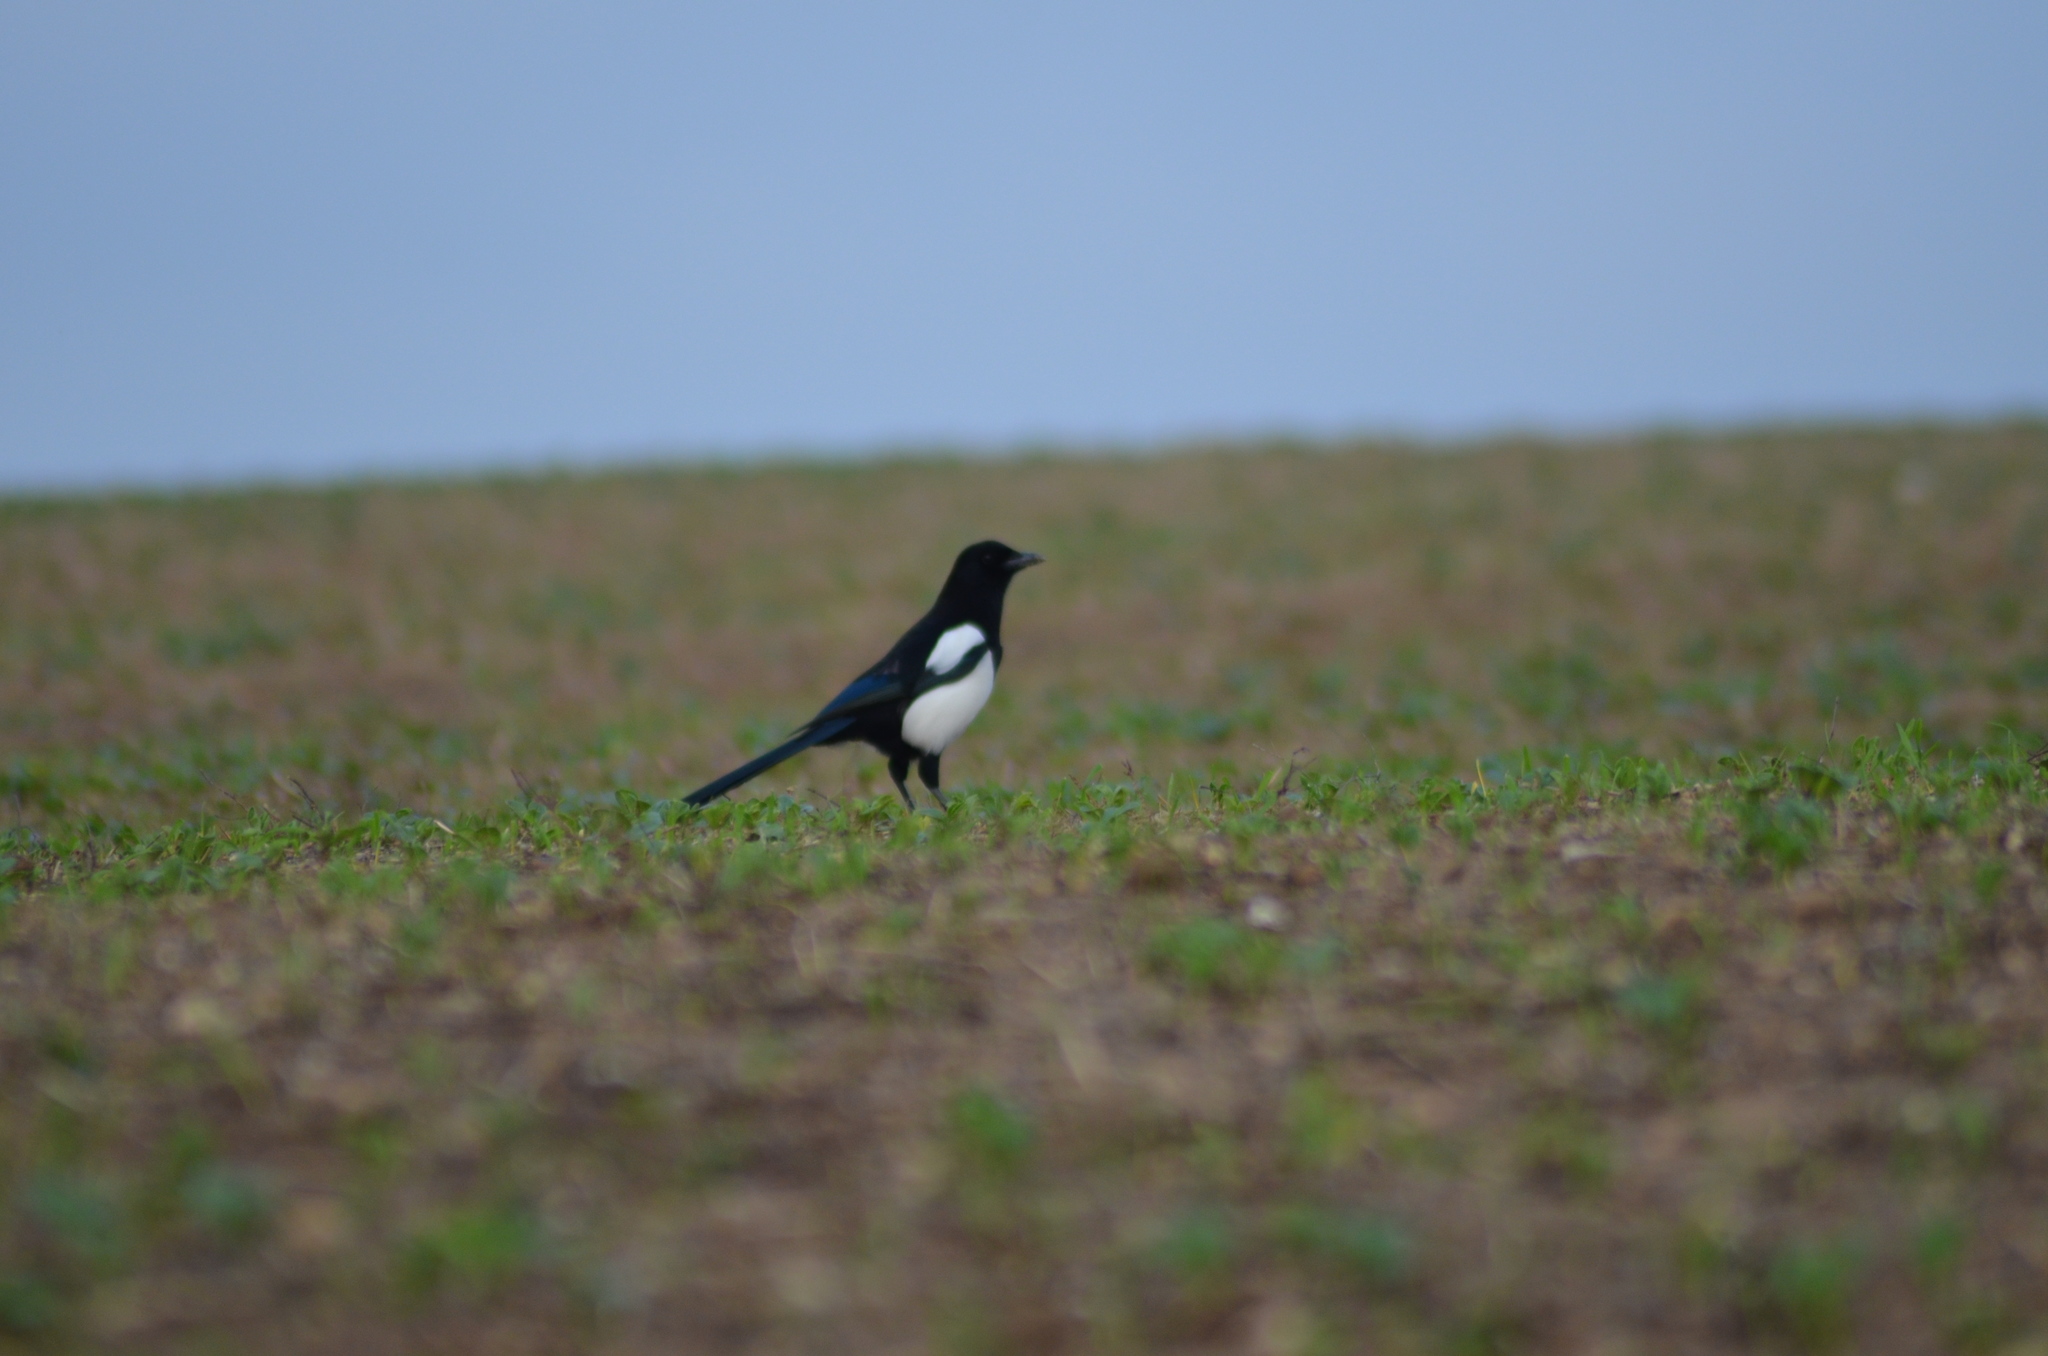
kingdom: Animalia
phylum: Chordata
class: Aves
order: Passeriformes
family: Corvidae
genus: Pica
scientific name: Pica pica
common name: Eurasian magpie
